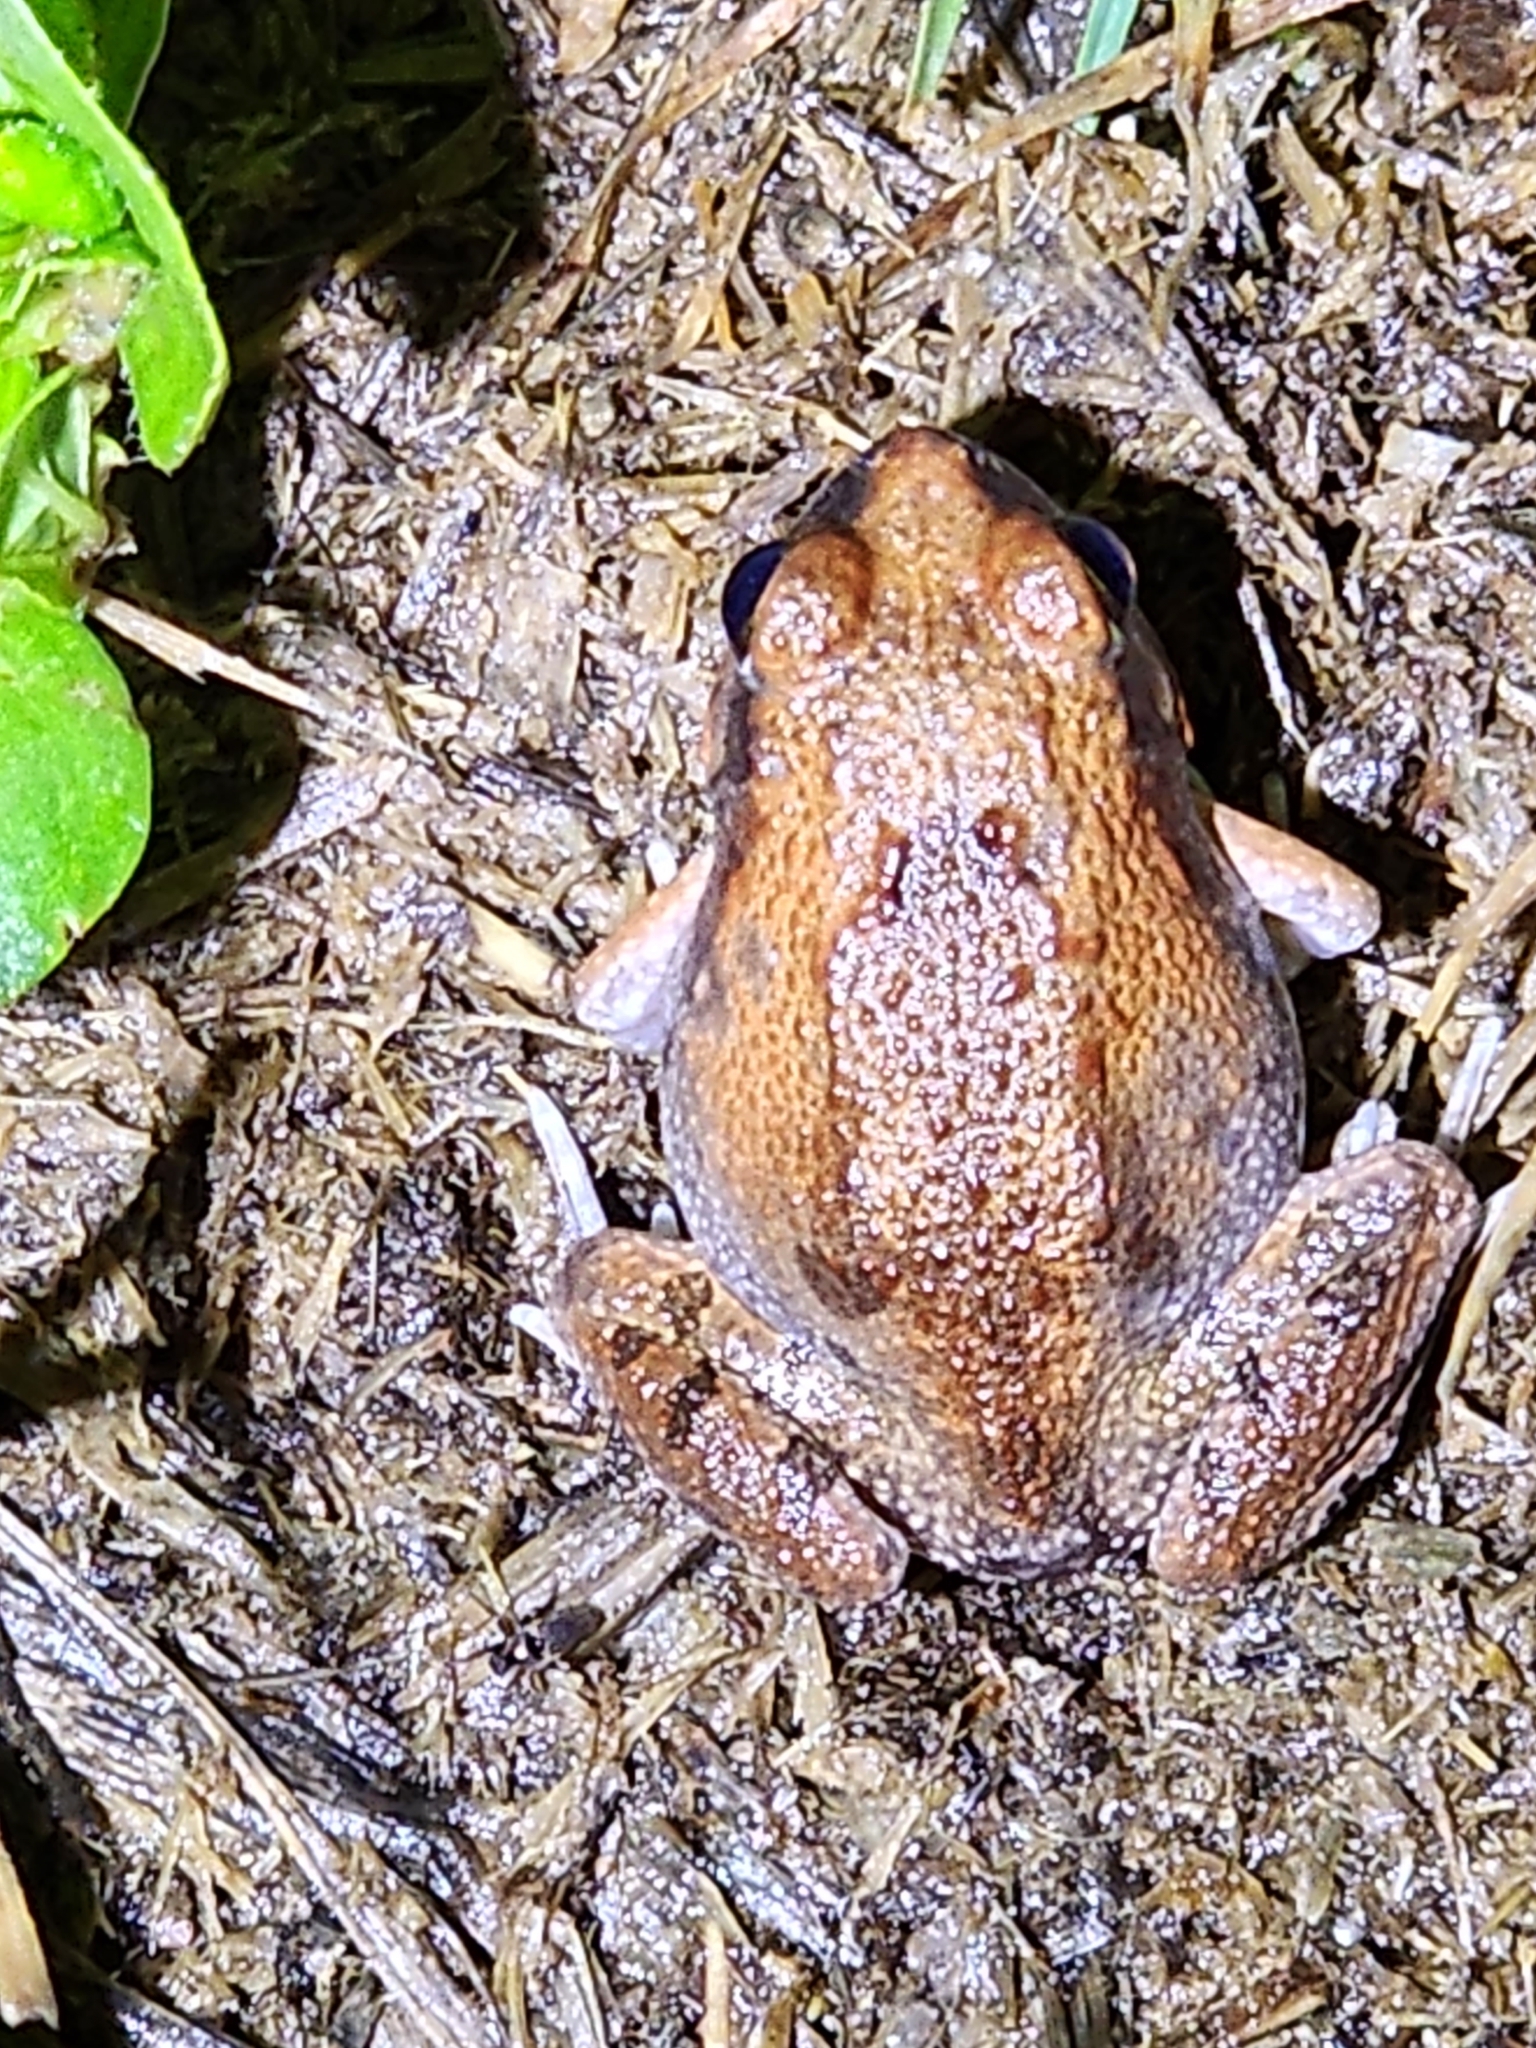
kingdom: Animalia
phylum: Chordata
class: Amphibia
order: Anura
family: Limnodynastidae
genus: Platyplectrum
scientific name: Platyplectrum ornatum
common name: Ornate burrowing frog
